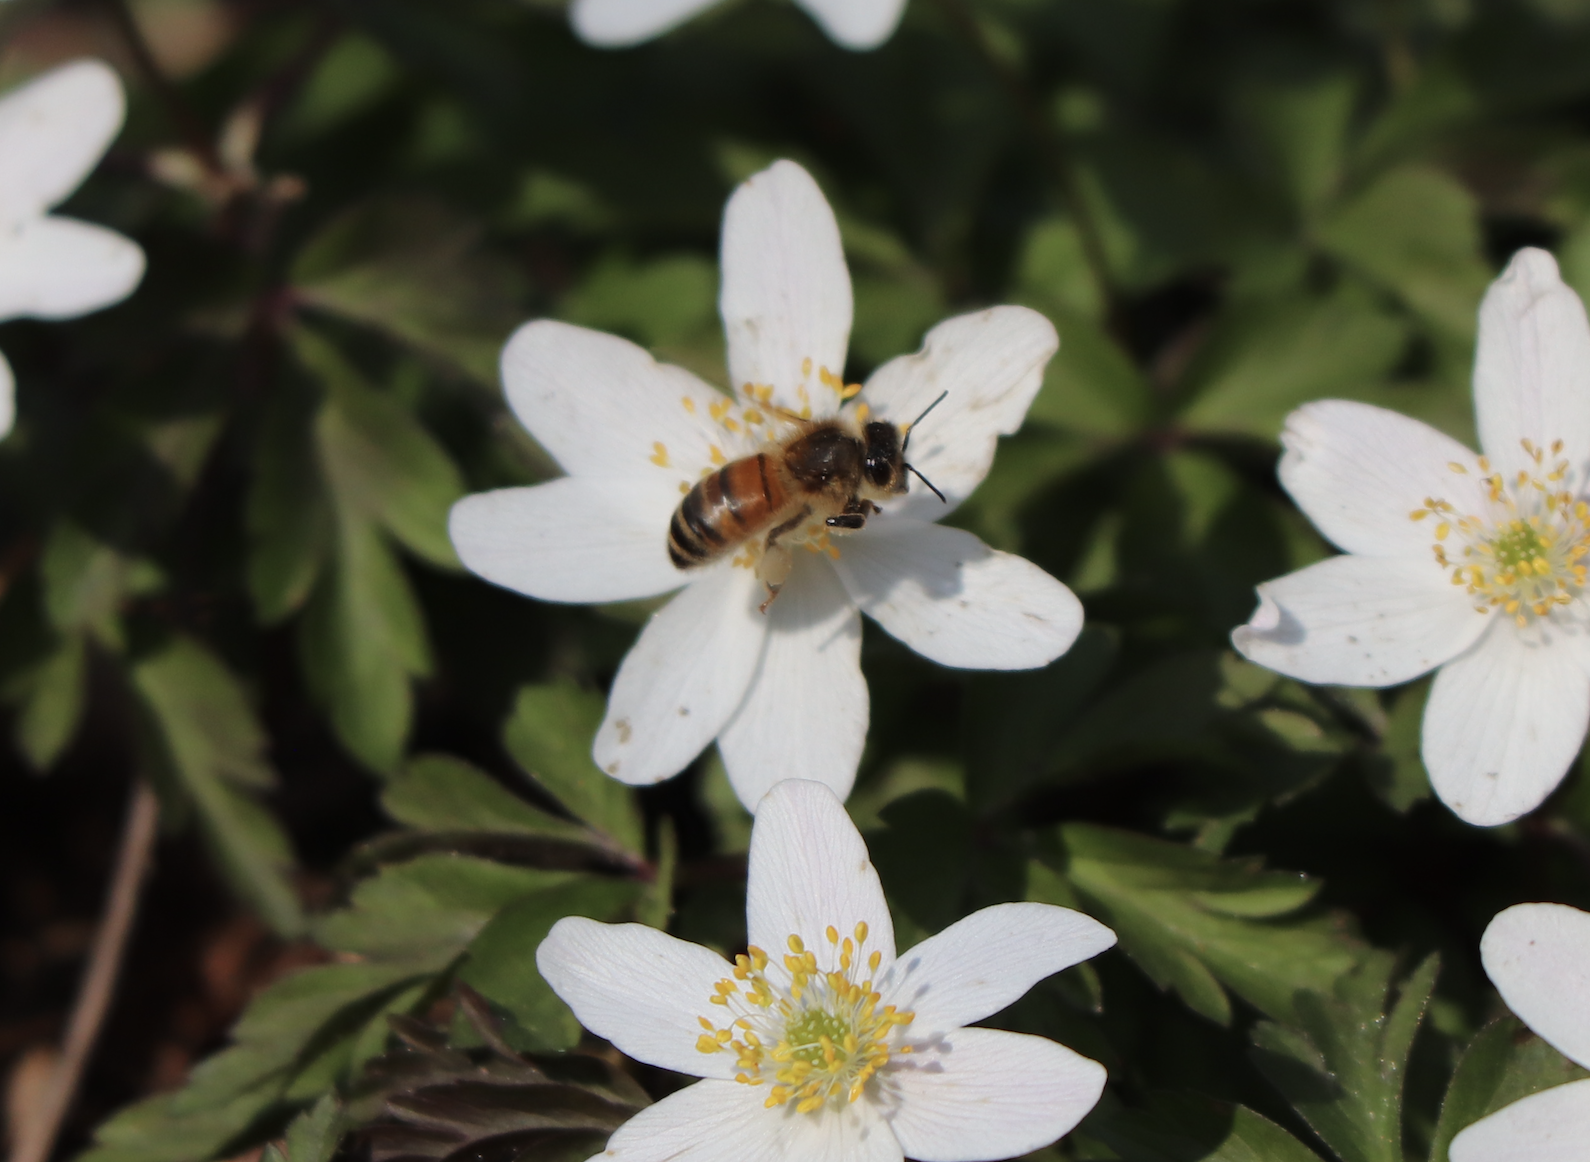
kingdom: Animalia
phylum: Arthropoda
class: Insecta
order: Hymenoptera
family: Apidae
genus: Apis
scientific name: Apis mellifera
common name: Honey bee
